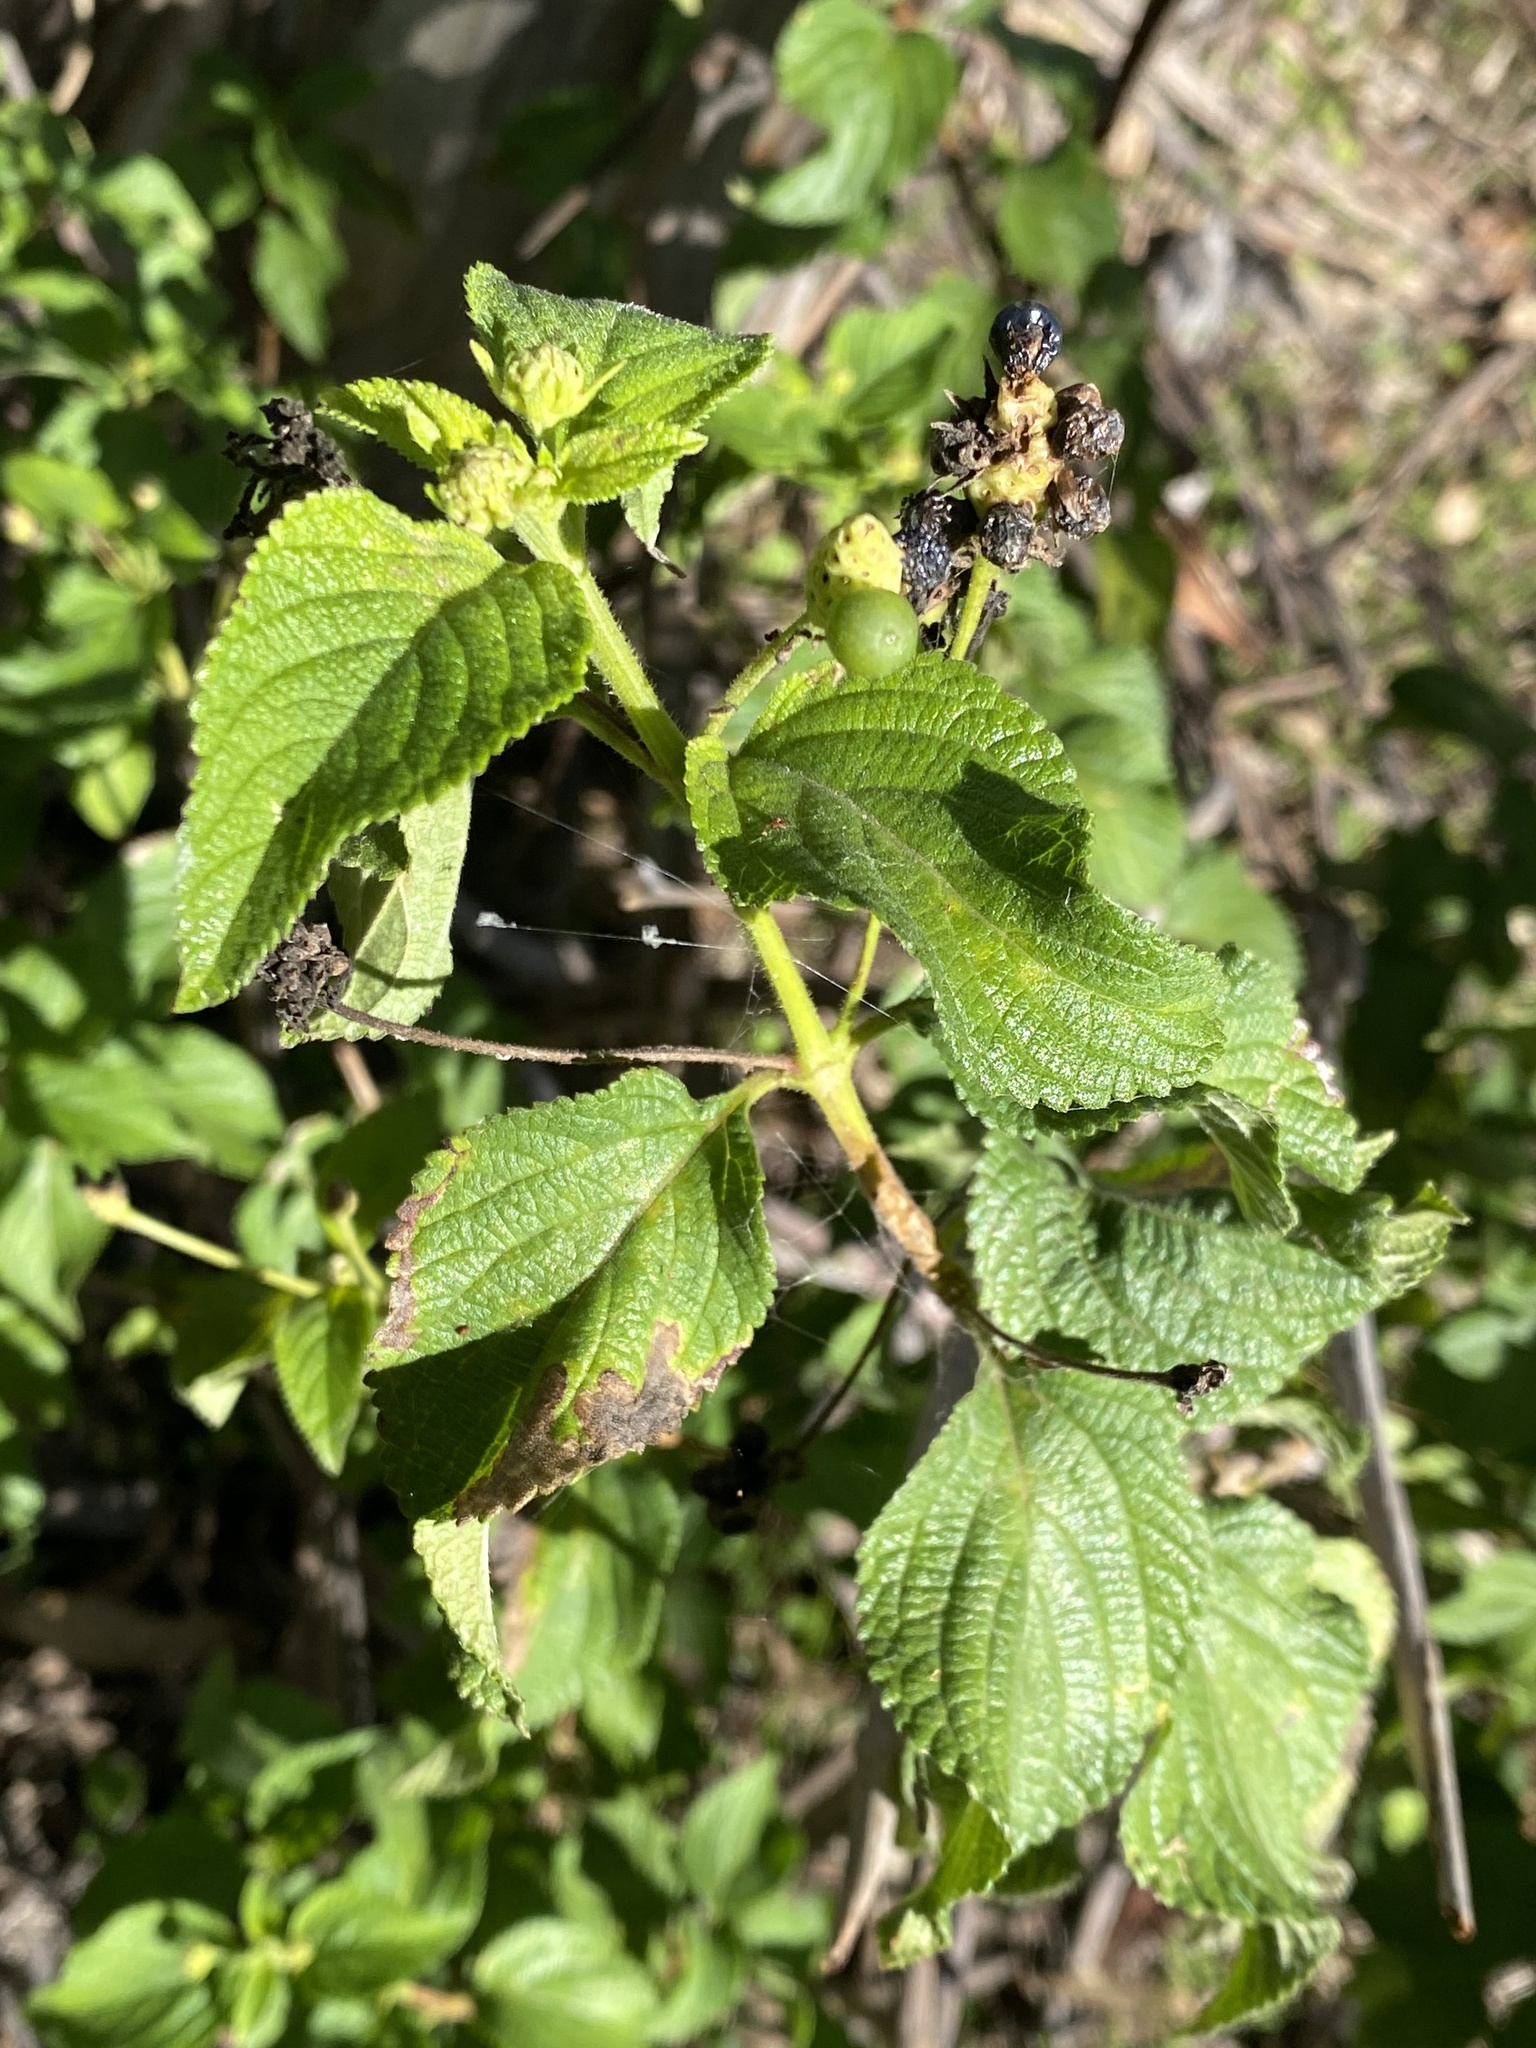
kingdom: Plantae
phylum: Tracheophyta
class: Magnoliopsida
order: Lamiales
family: Verbenaceae
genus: Lantana
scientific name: Lantana camara
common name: Lantana
